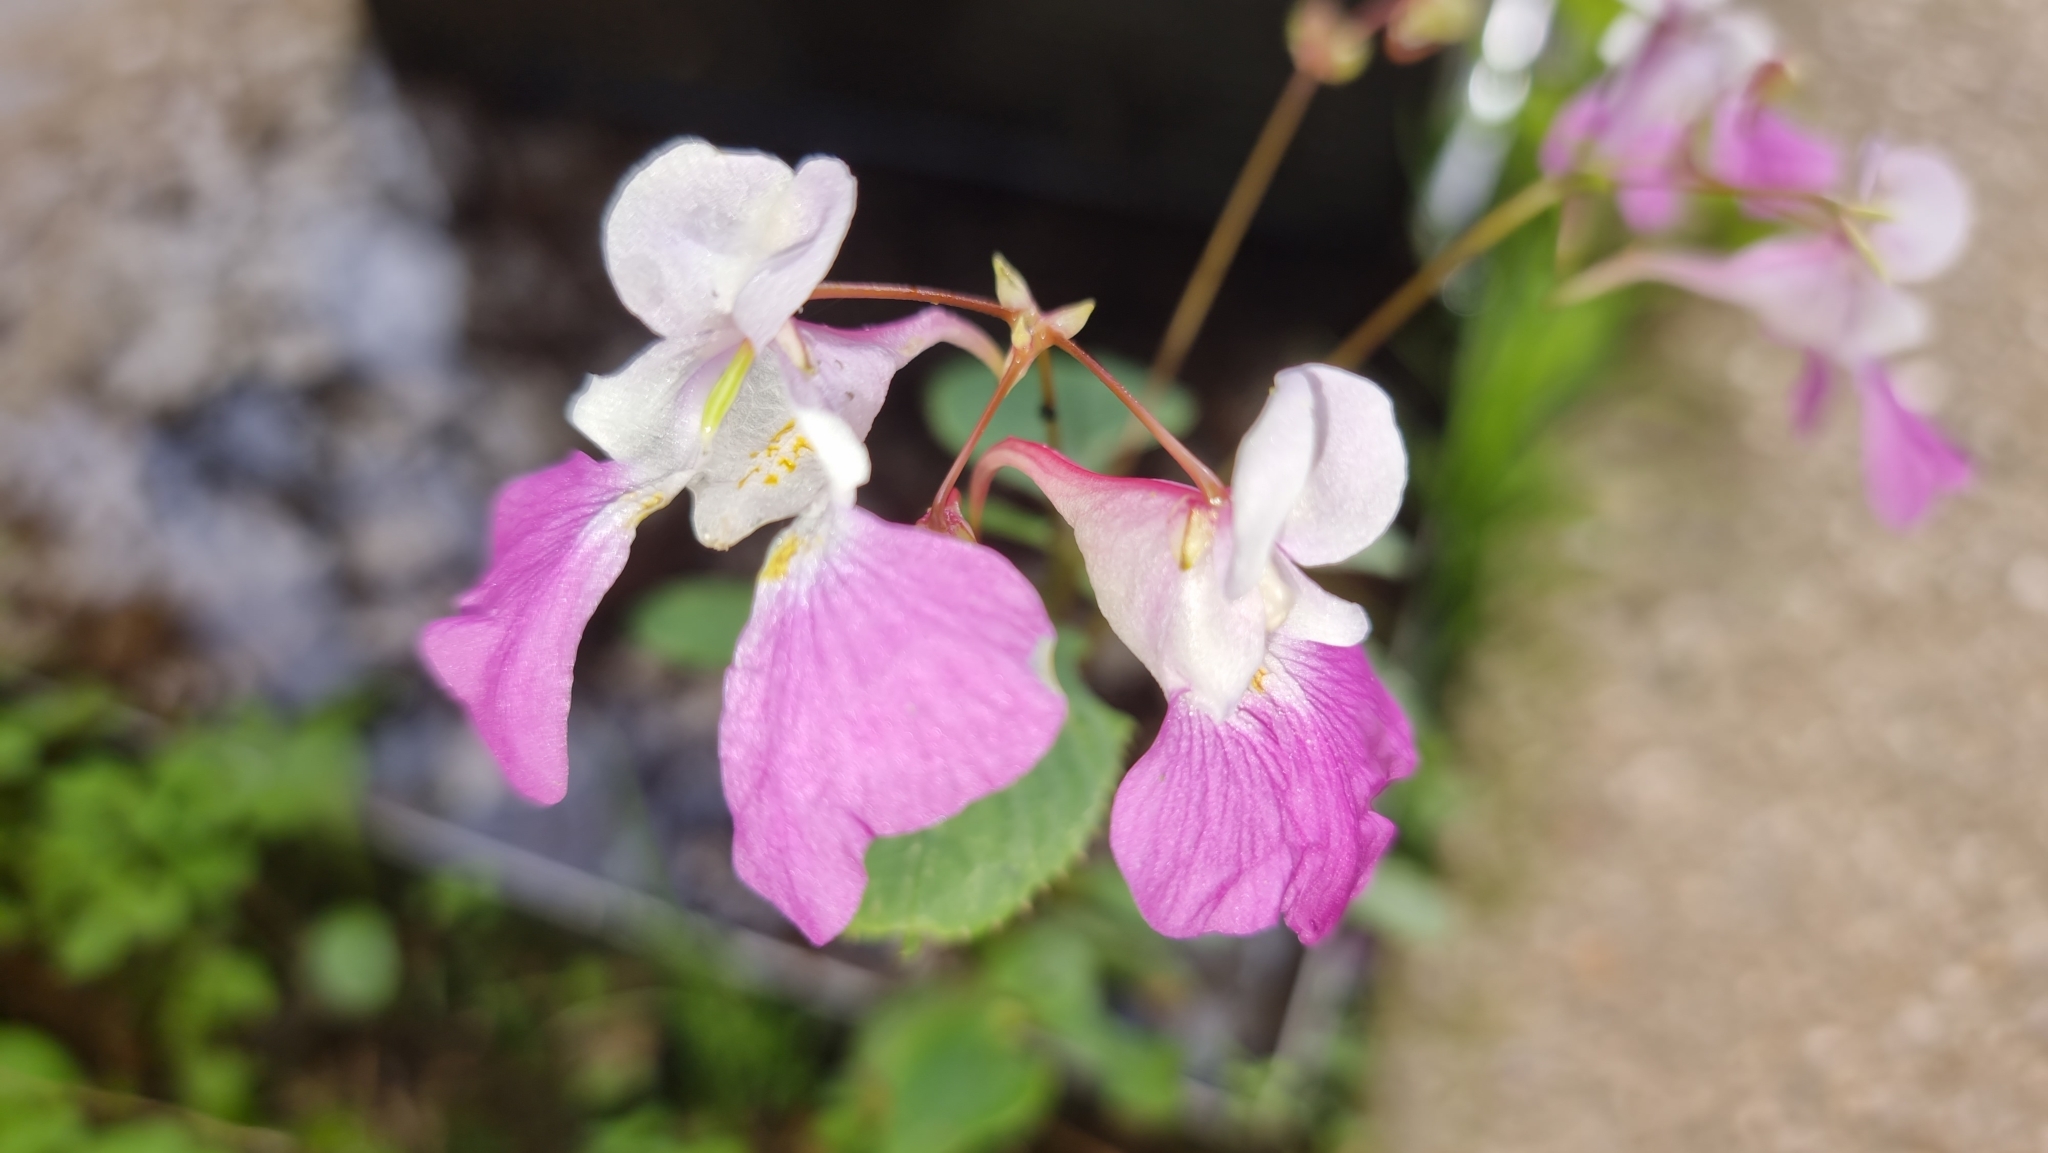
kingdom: Plantae
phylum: Tracheophyta
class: Magnoliopsida
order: Ericales
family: Balsaminaceae
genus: Impatiens
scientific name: Impatiens balfourii
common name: Balfour's touch-me-not
